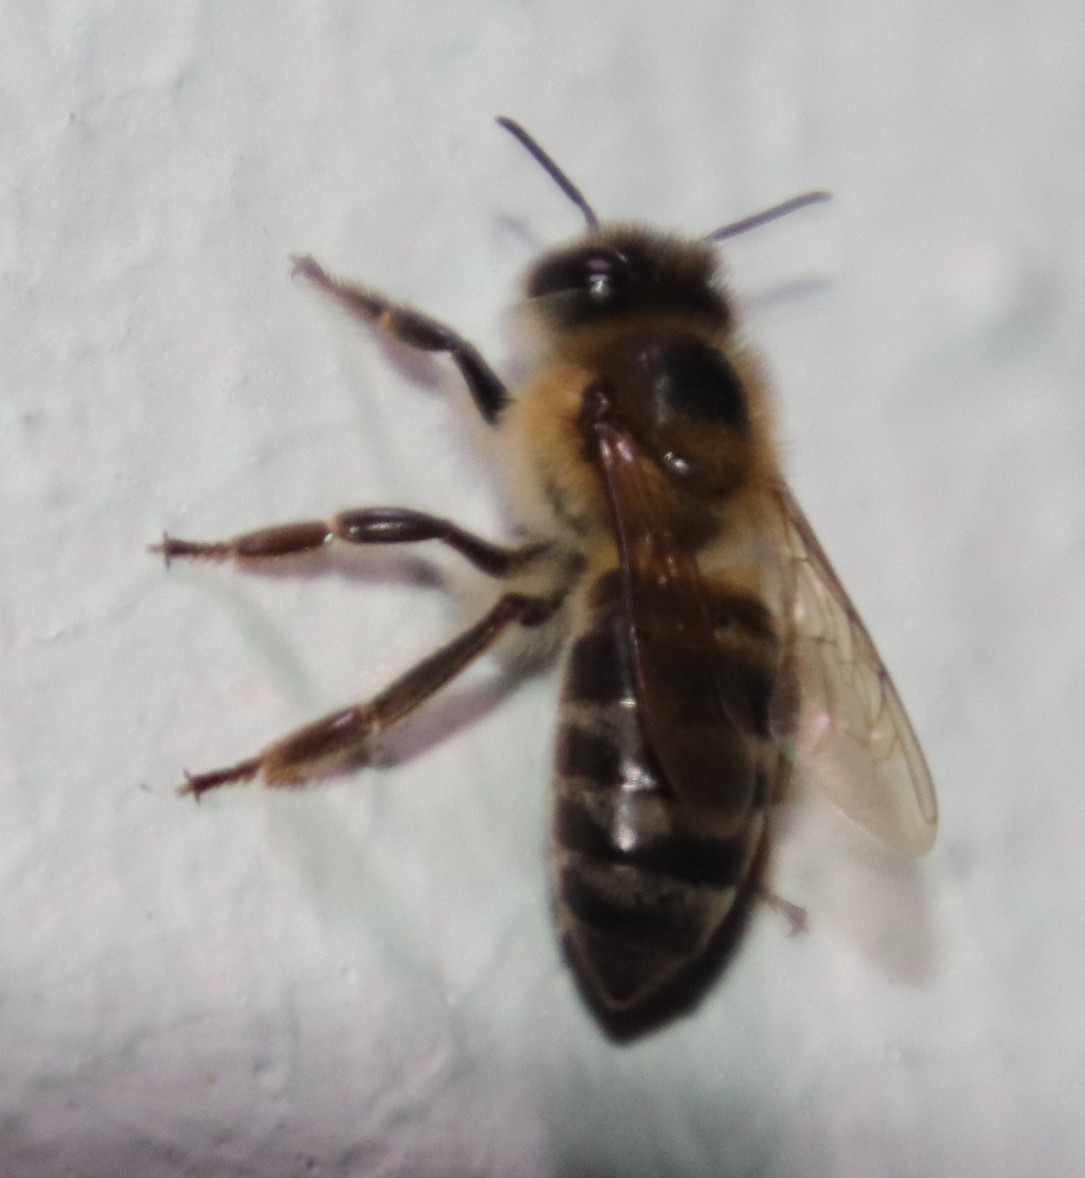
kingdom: Animalia
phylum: Arthropoda
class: Insecta
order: Hymenoptera
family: Apidae
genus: Apis
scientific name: Apis mellifera
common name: Honey bee
